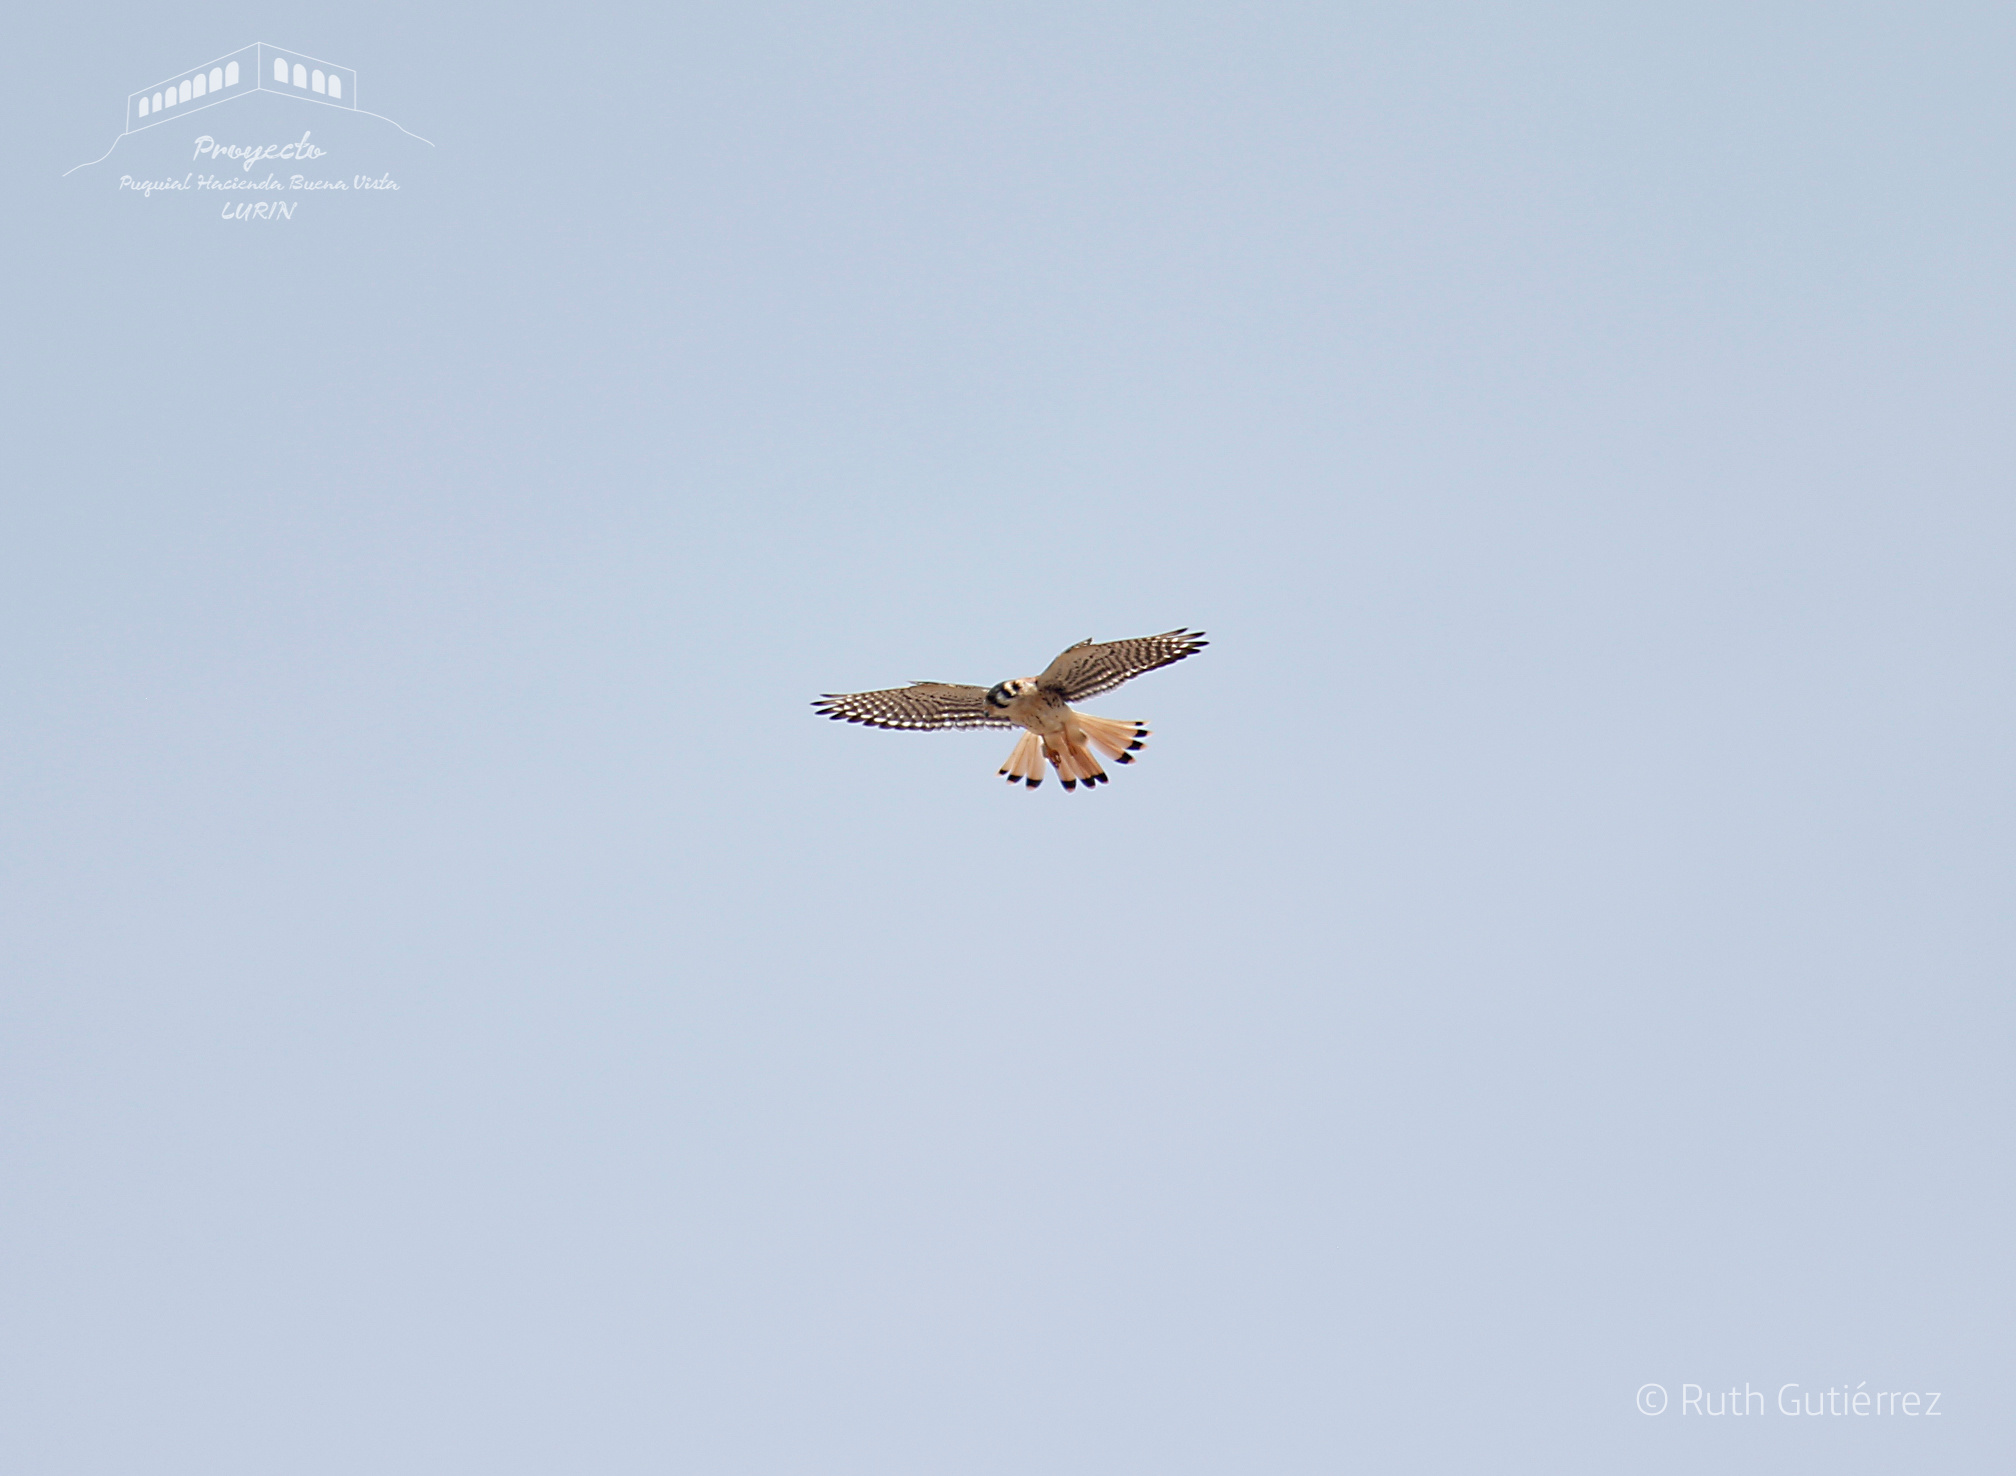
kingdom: Animalia
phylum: Chordata
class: Aves
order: Falconiformes
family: Falconidae
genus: Falco
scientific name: Falco sparverius
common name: American kestrel
